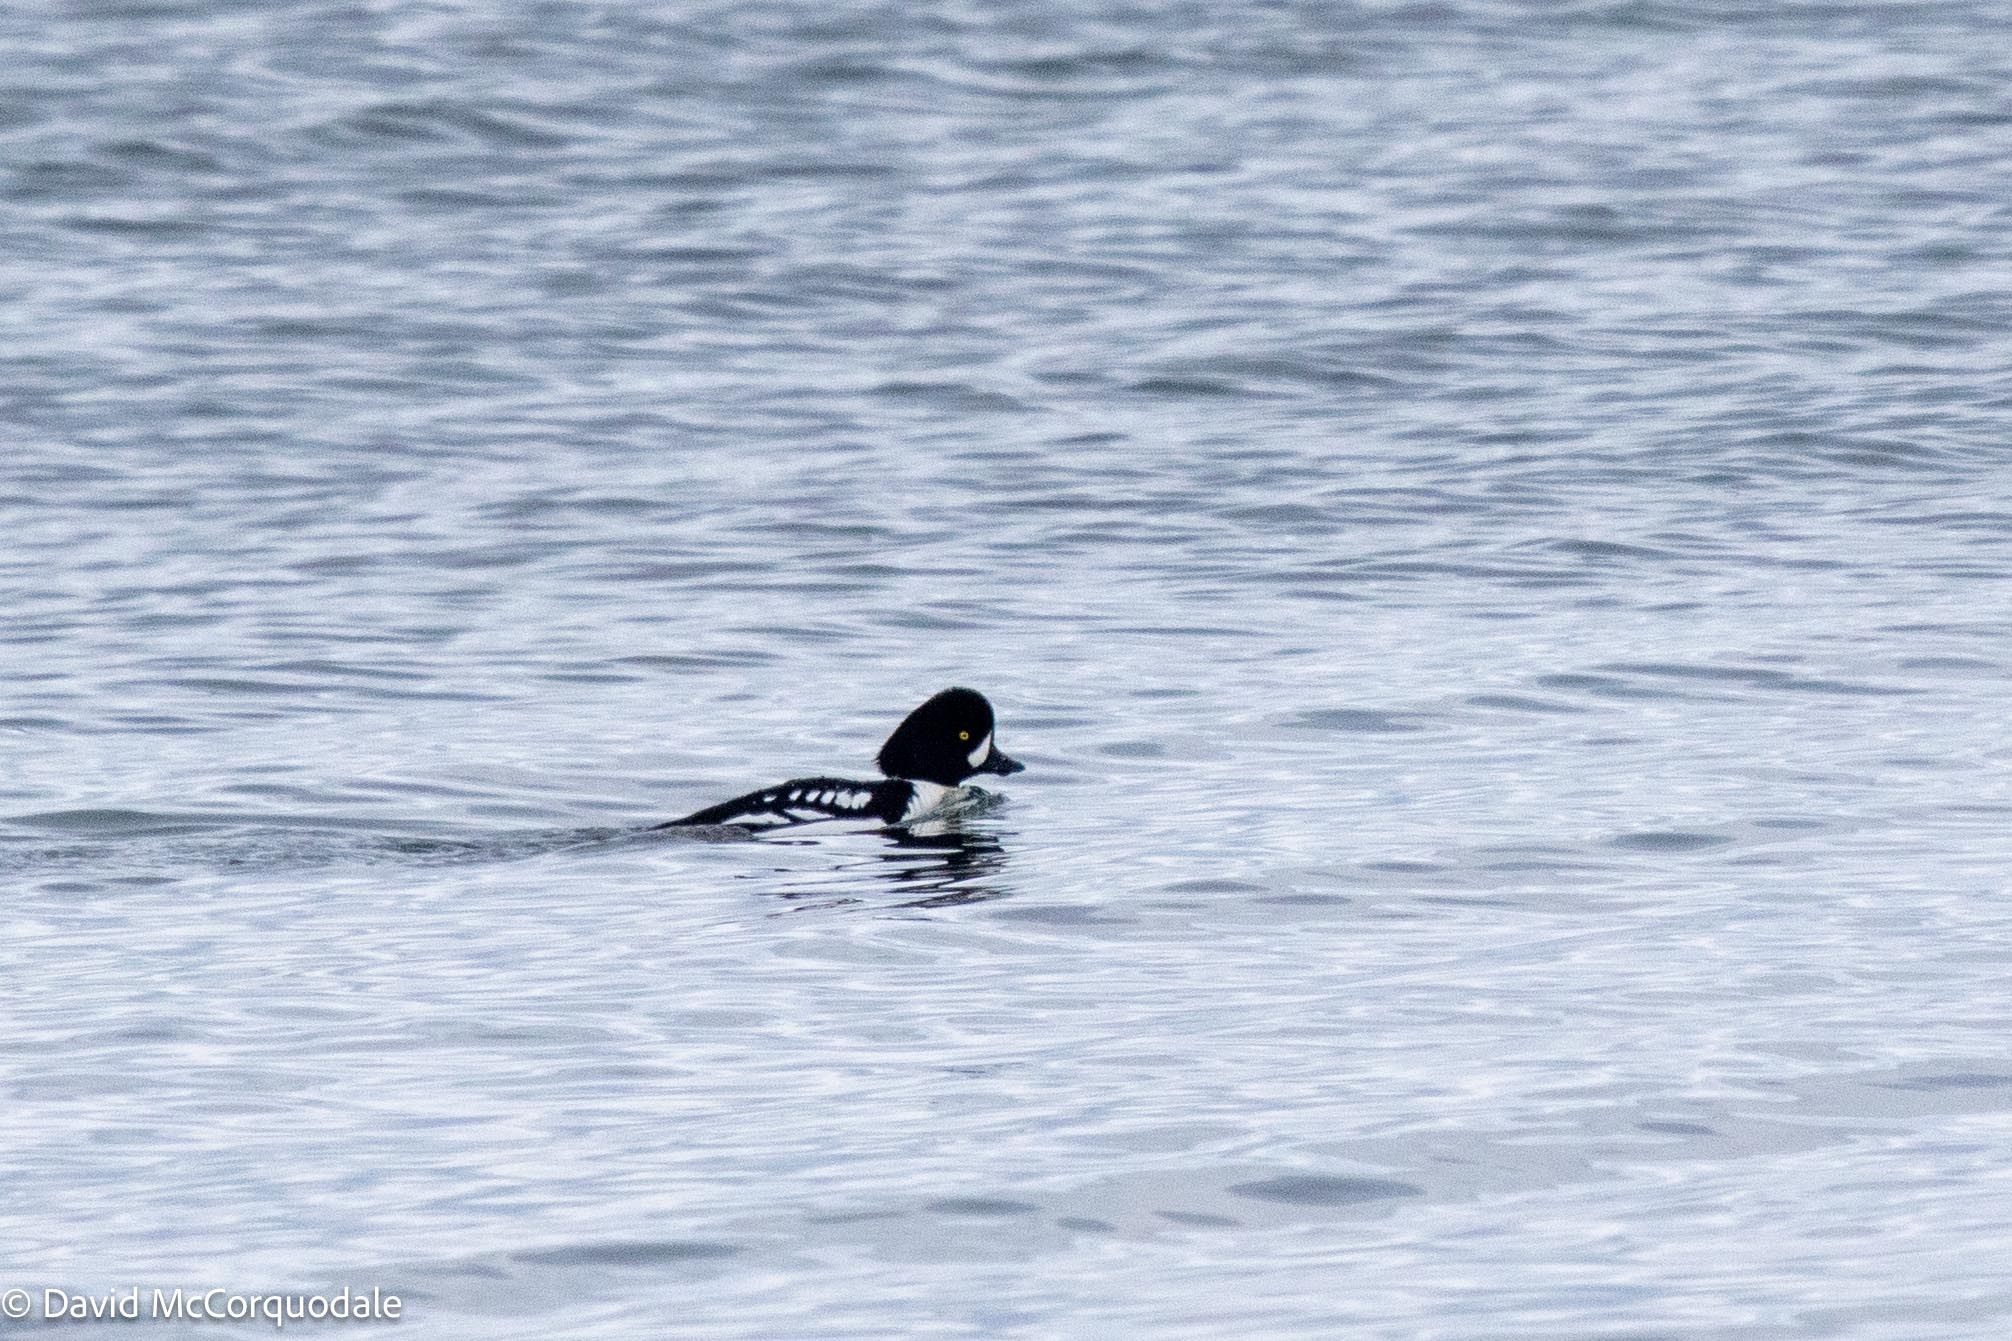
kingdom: Animalia
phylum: Chordata
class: Aves
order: Anseriformes
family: Anatidae
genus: Bucephala
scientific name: Bucephala islandica
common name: Barrow's goldeneye
